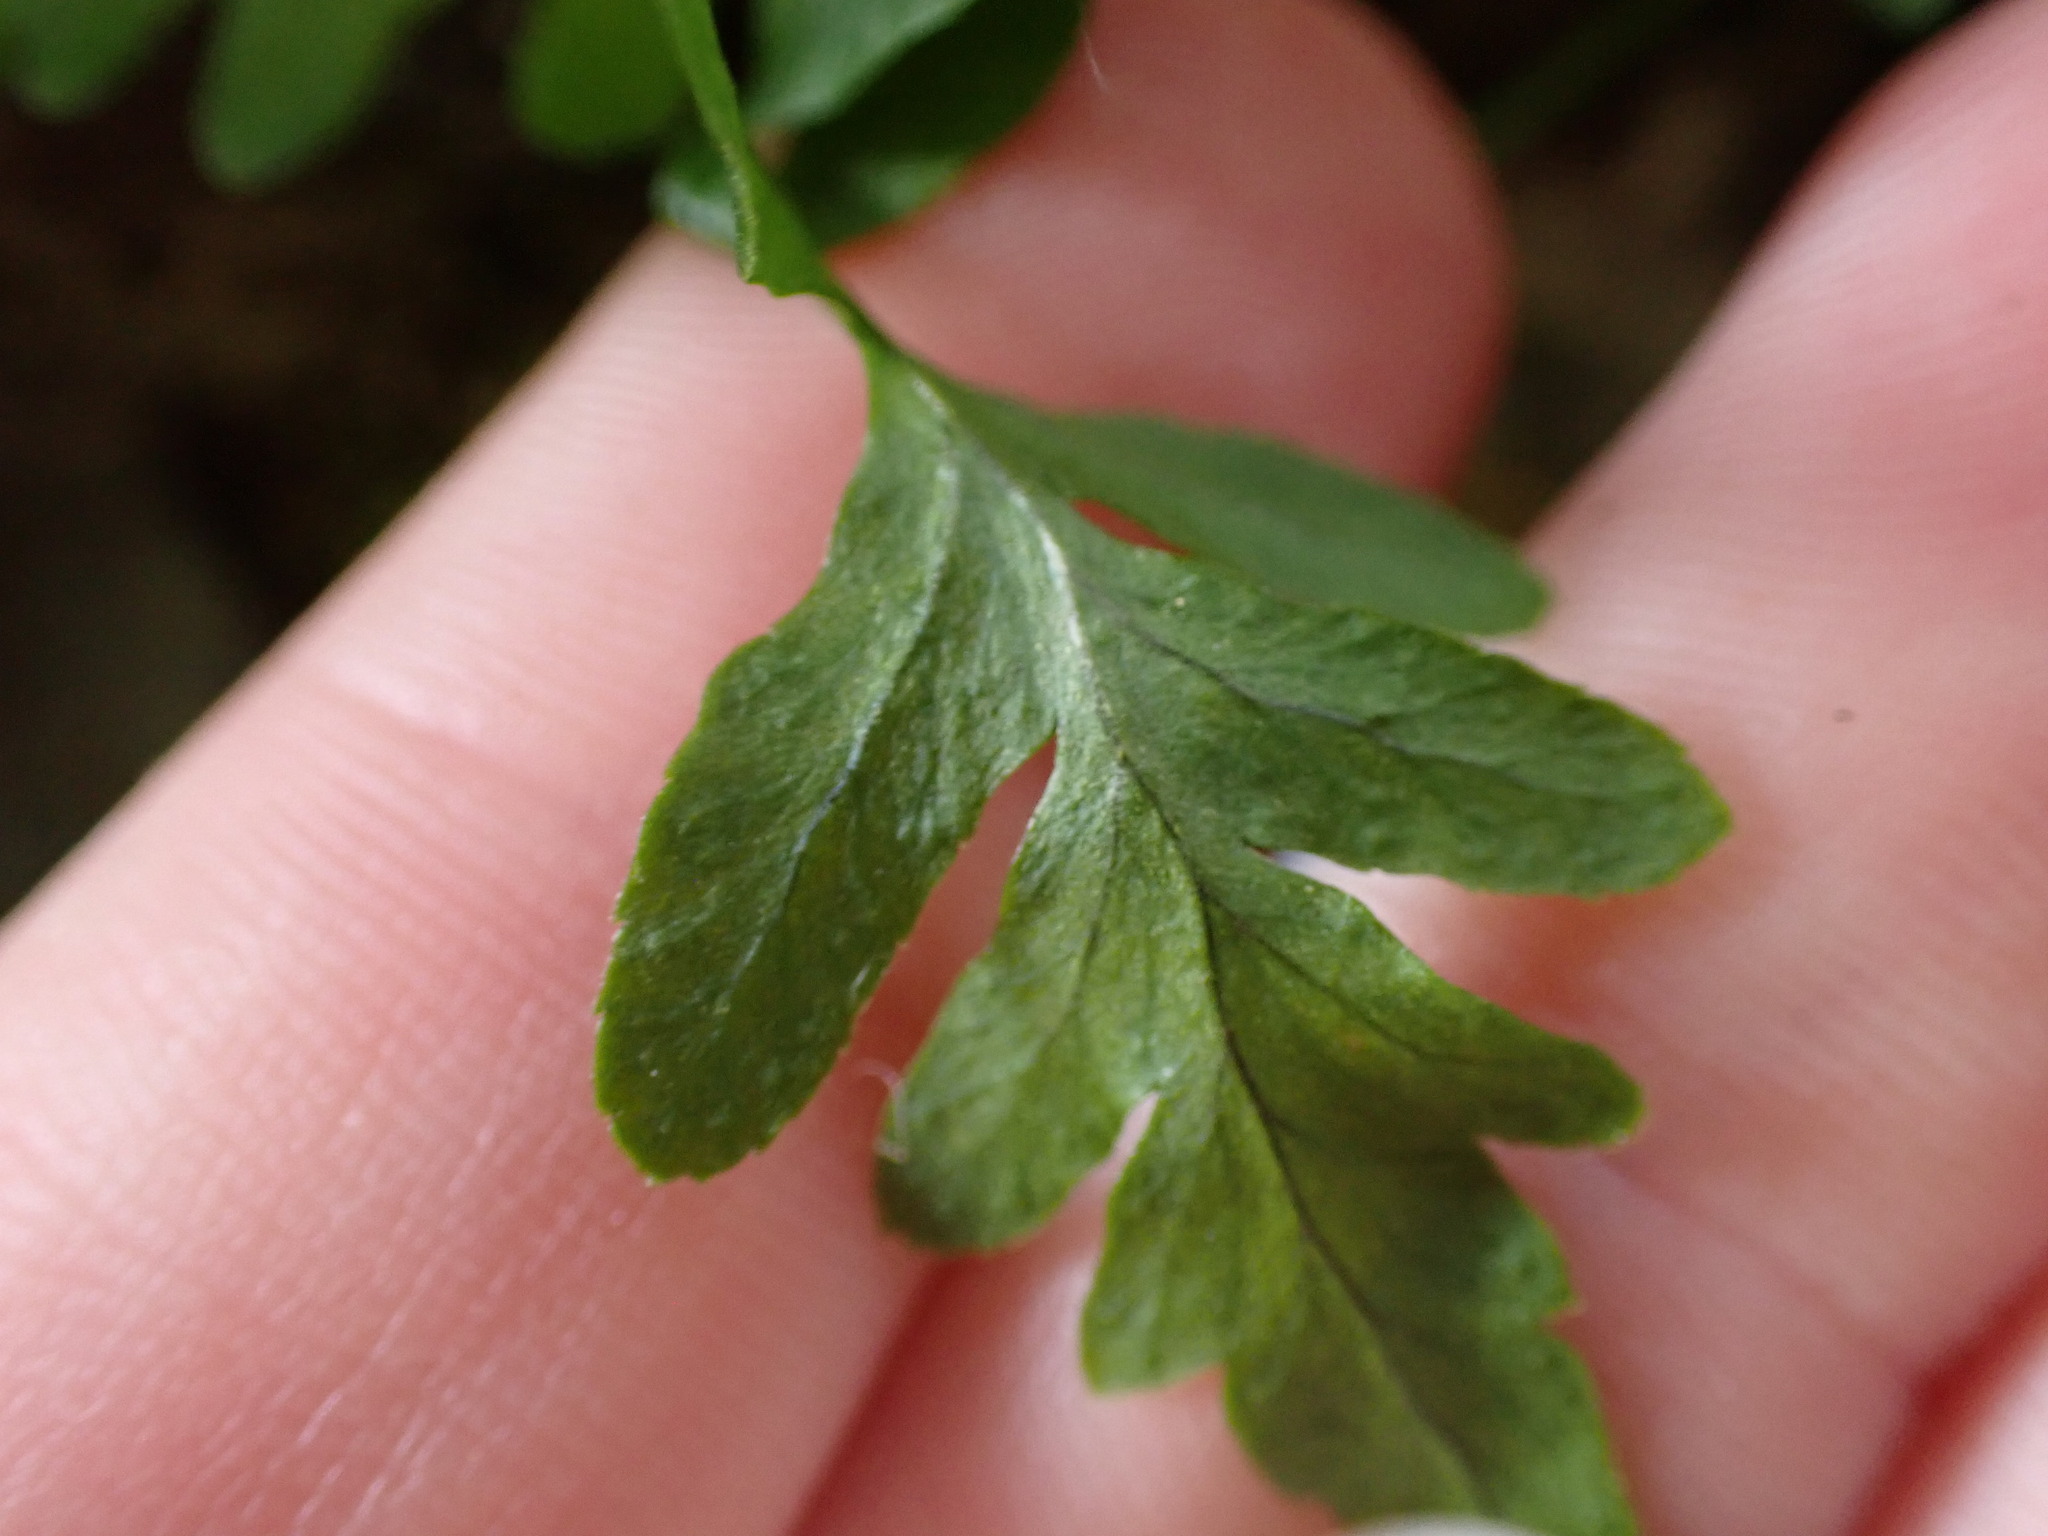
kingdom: Plantae
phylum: Tracheophyta
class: Polypodiopsida
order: Polypodiales
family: Polypodiaceae
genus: Polypodium
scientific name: Polypodium glycyrrhiza
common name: Licorice fern
